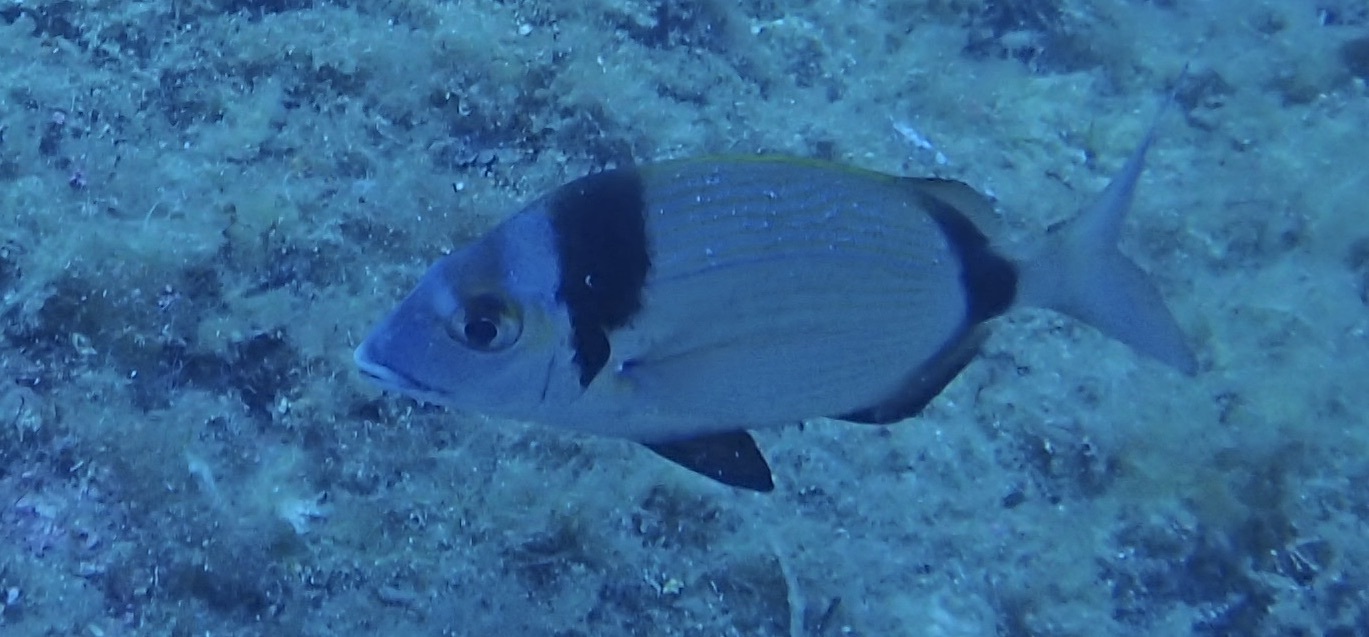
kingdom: Animalia
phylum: Chordata
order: Perciformes
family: Sparidae
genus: Diplodus
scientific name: Diplodus vulgaris
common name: Common two-banded seabream
